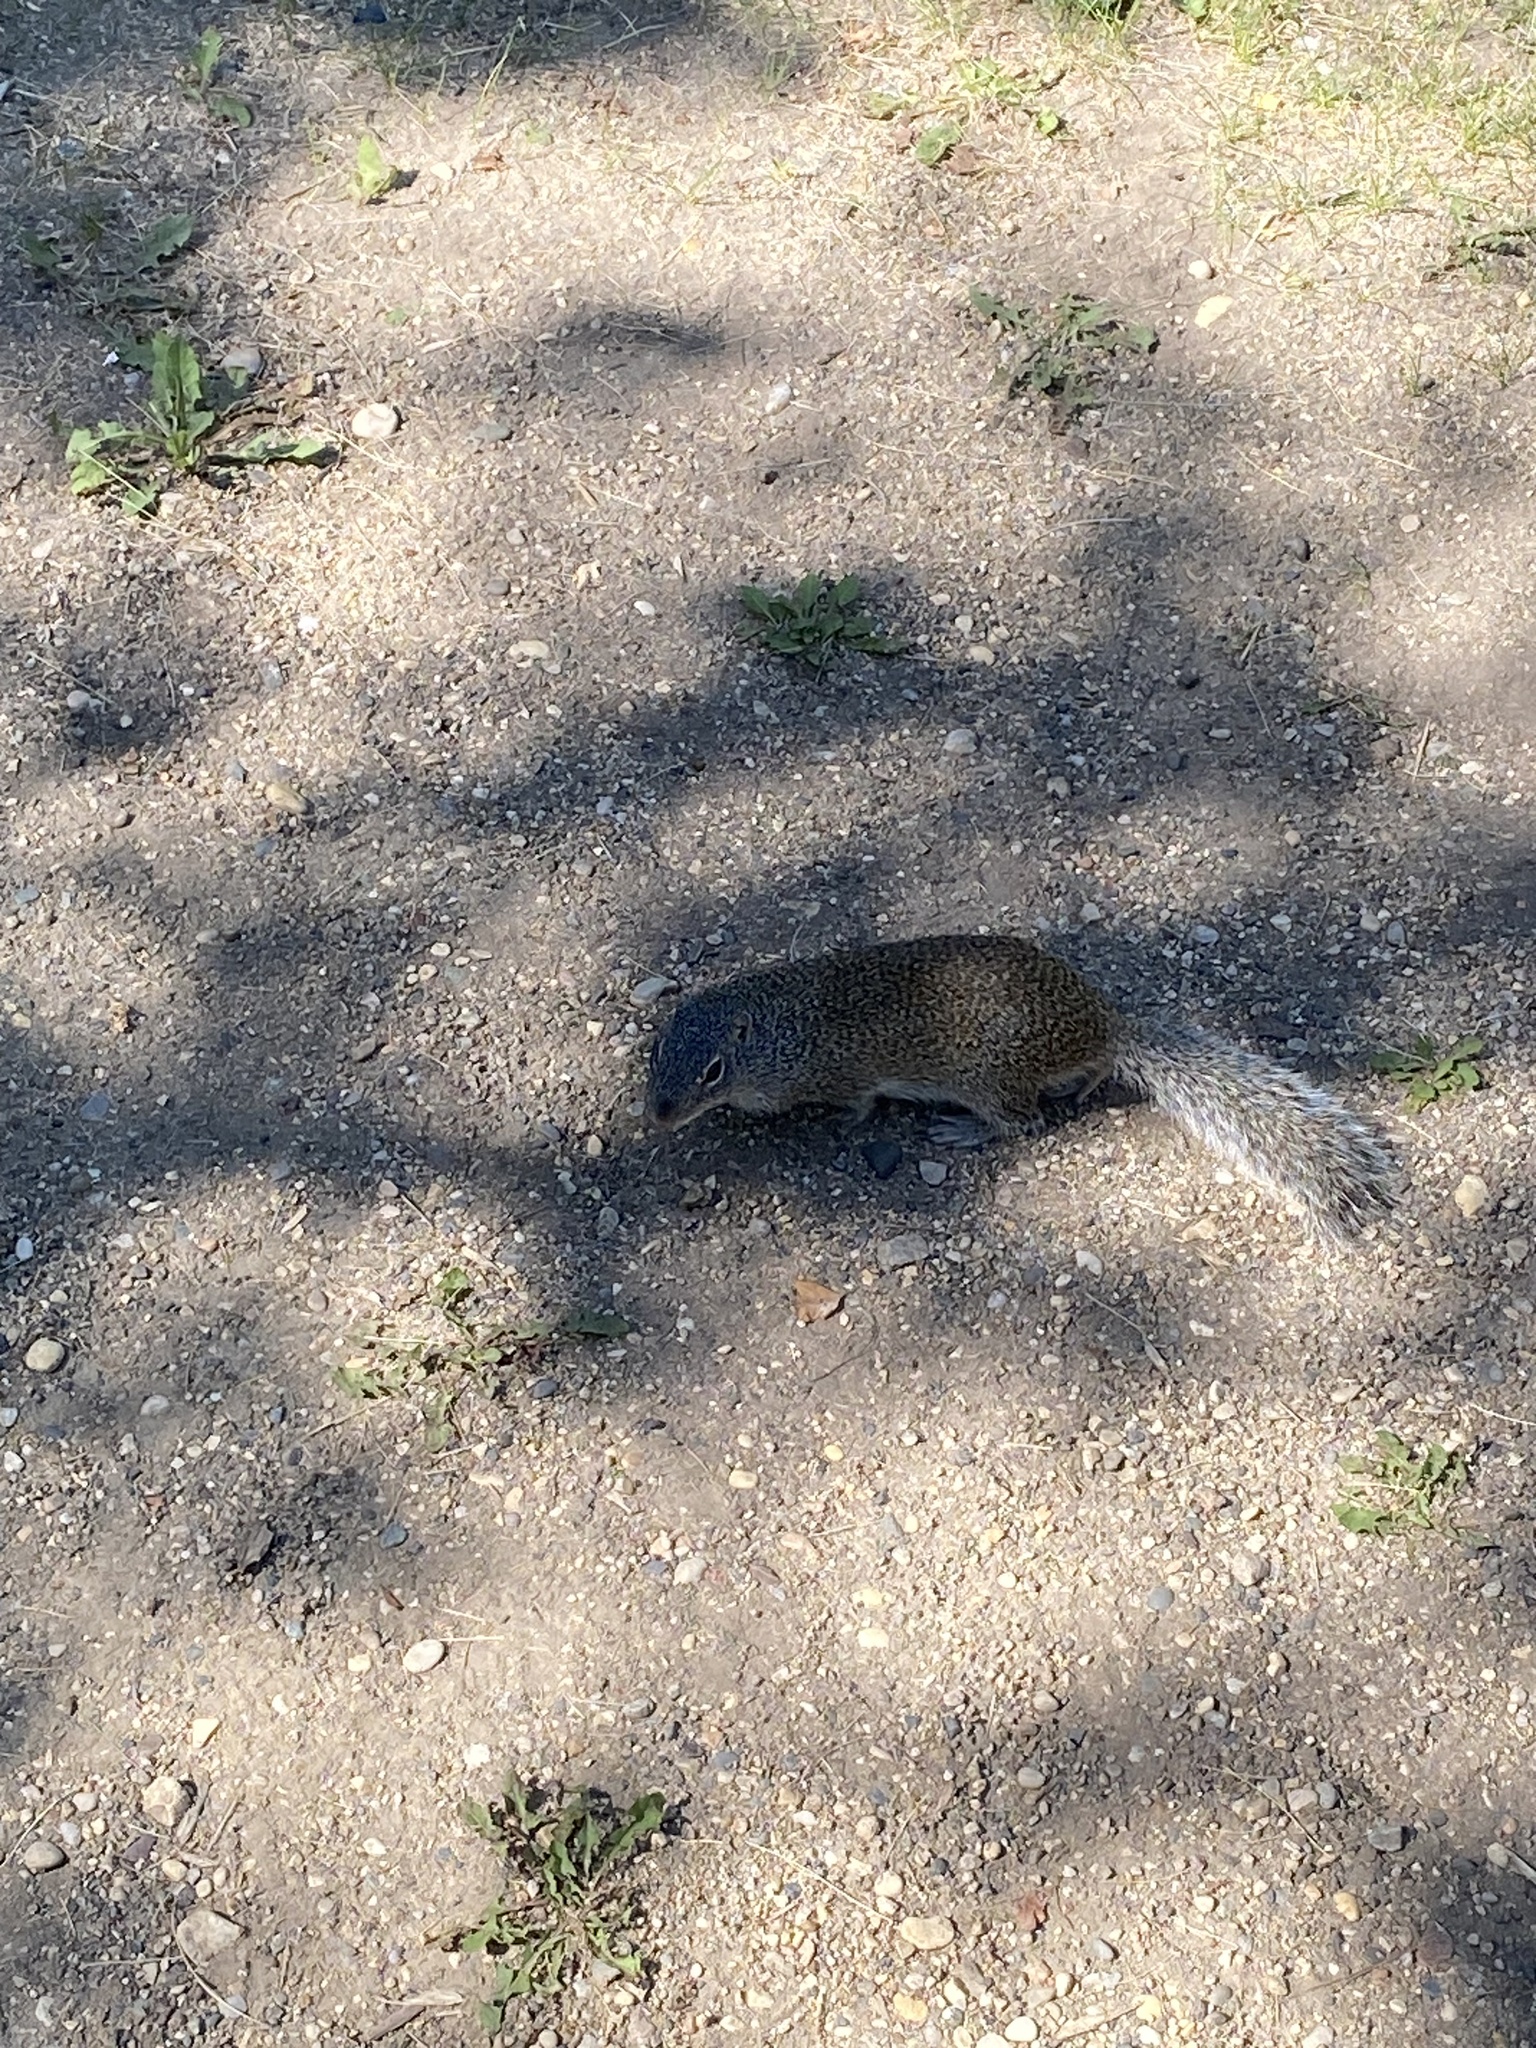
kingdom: Animalia
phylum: Chordata
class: Mammalia
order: Rodentia
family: Sciuridae
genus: Poliocitellus
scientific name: Poliocitellus franklinii
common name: Franklin's ground squirrel
